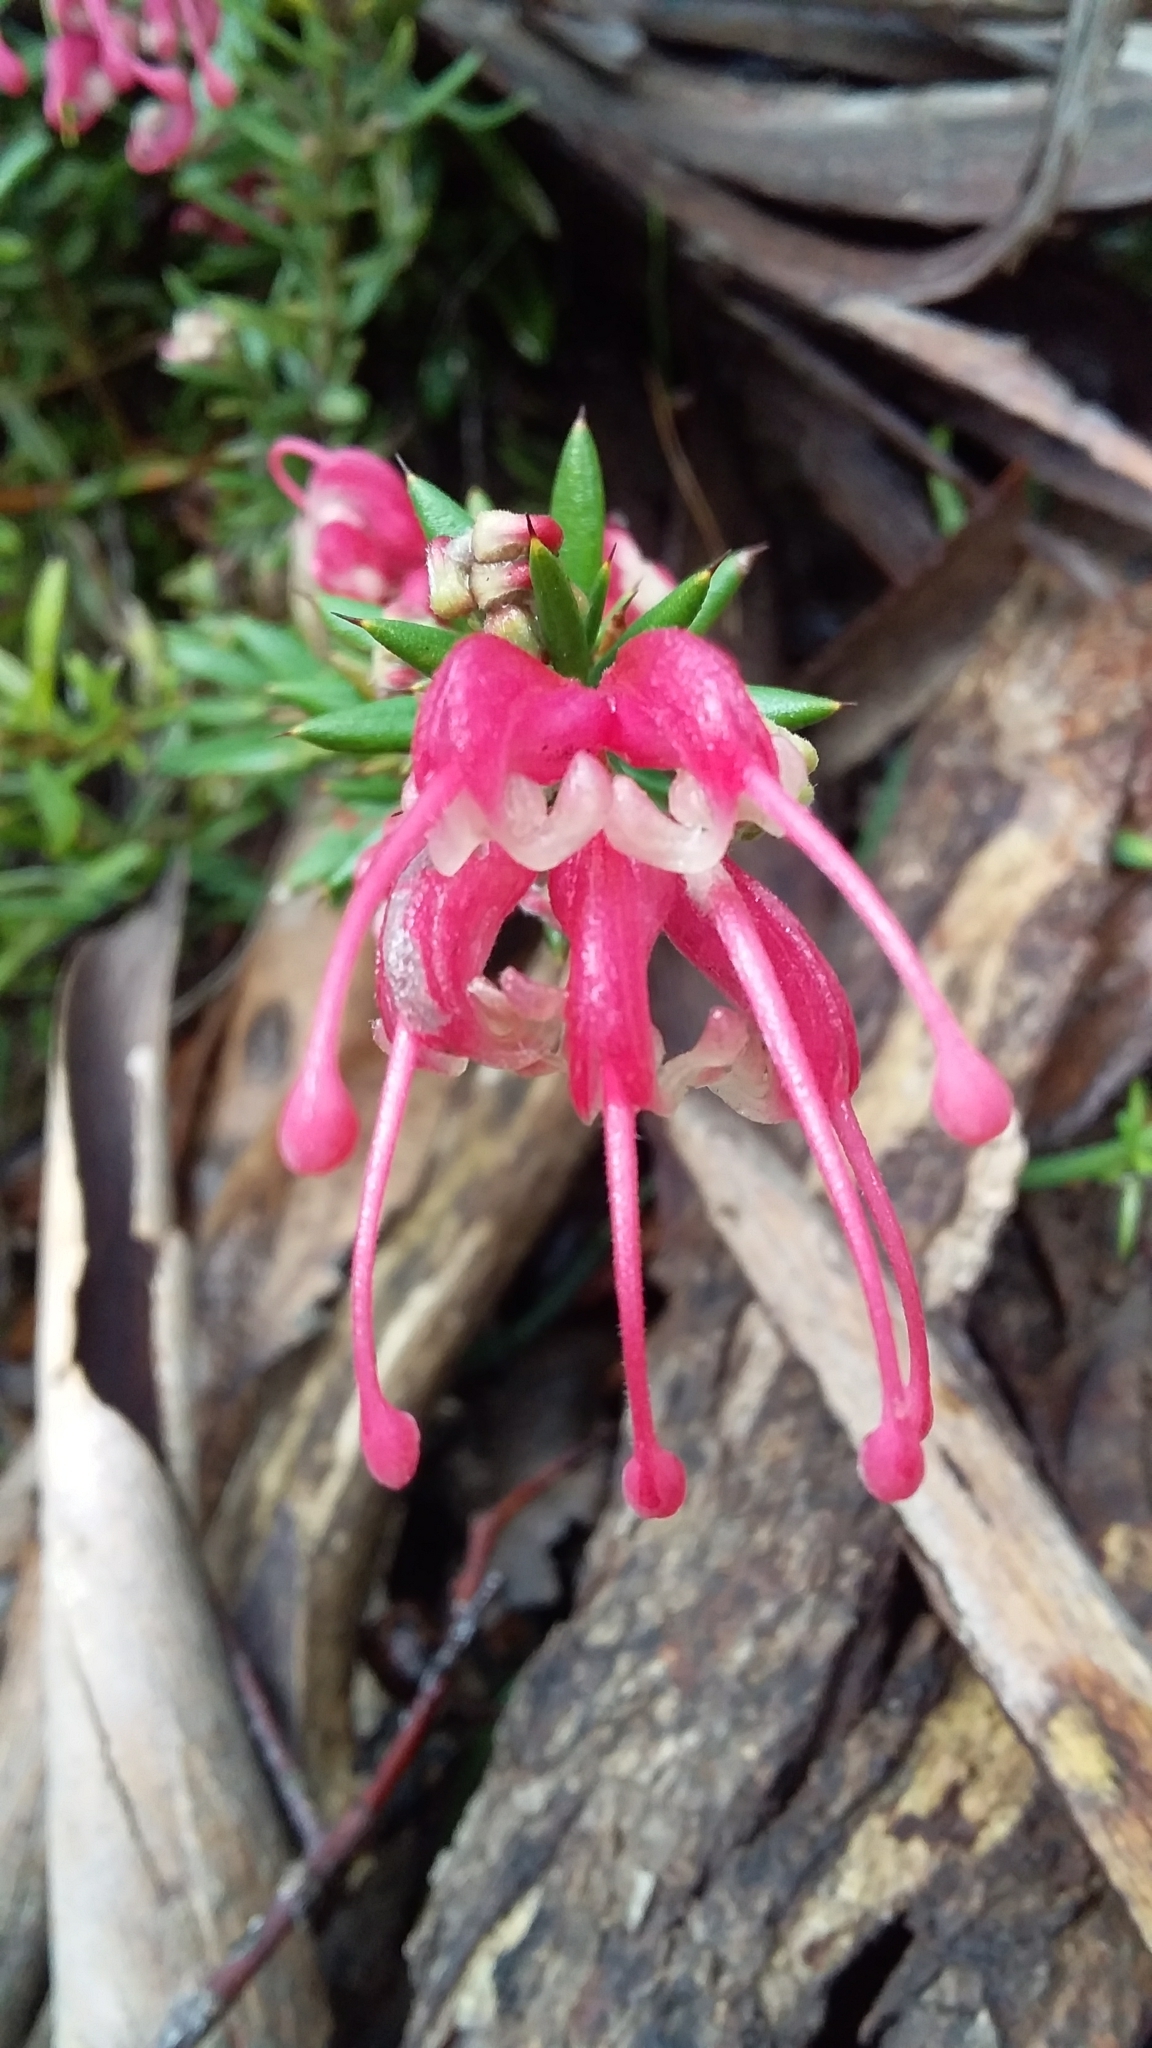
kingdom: Plantae
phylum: Tracheophyta
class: Magnoliopsida
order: Proteales
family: Proteaceae
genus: Grevillea
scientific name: Grevillea lavandulacea
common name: Lavender grevillea
